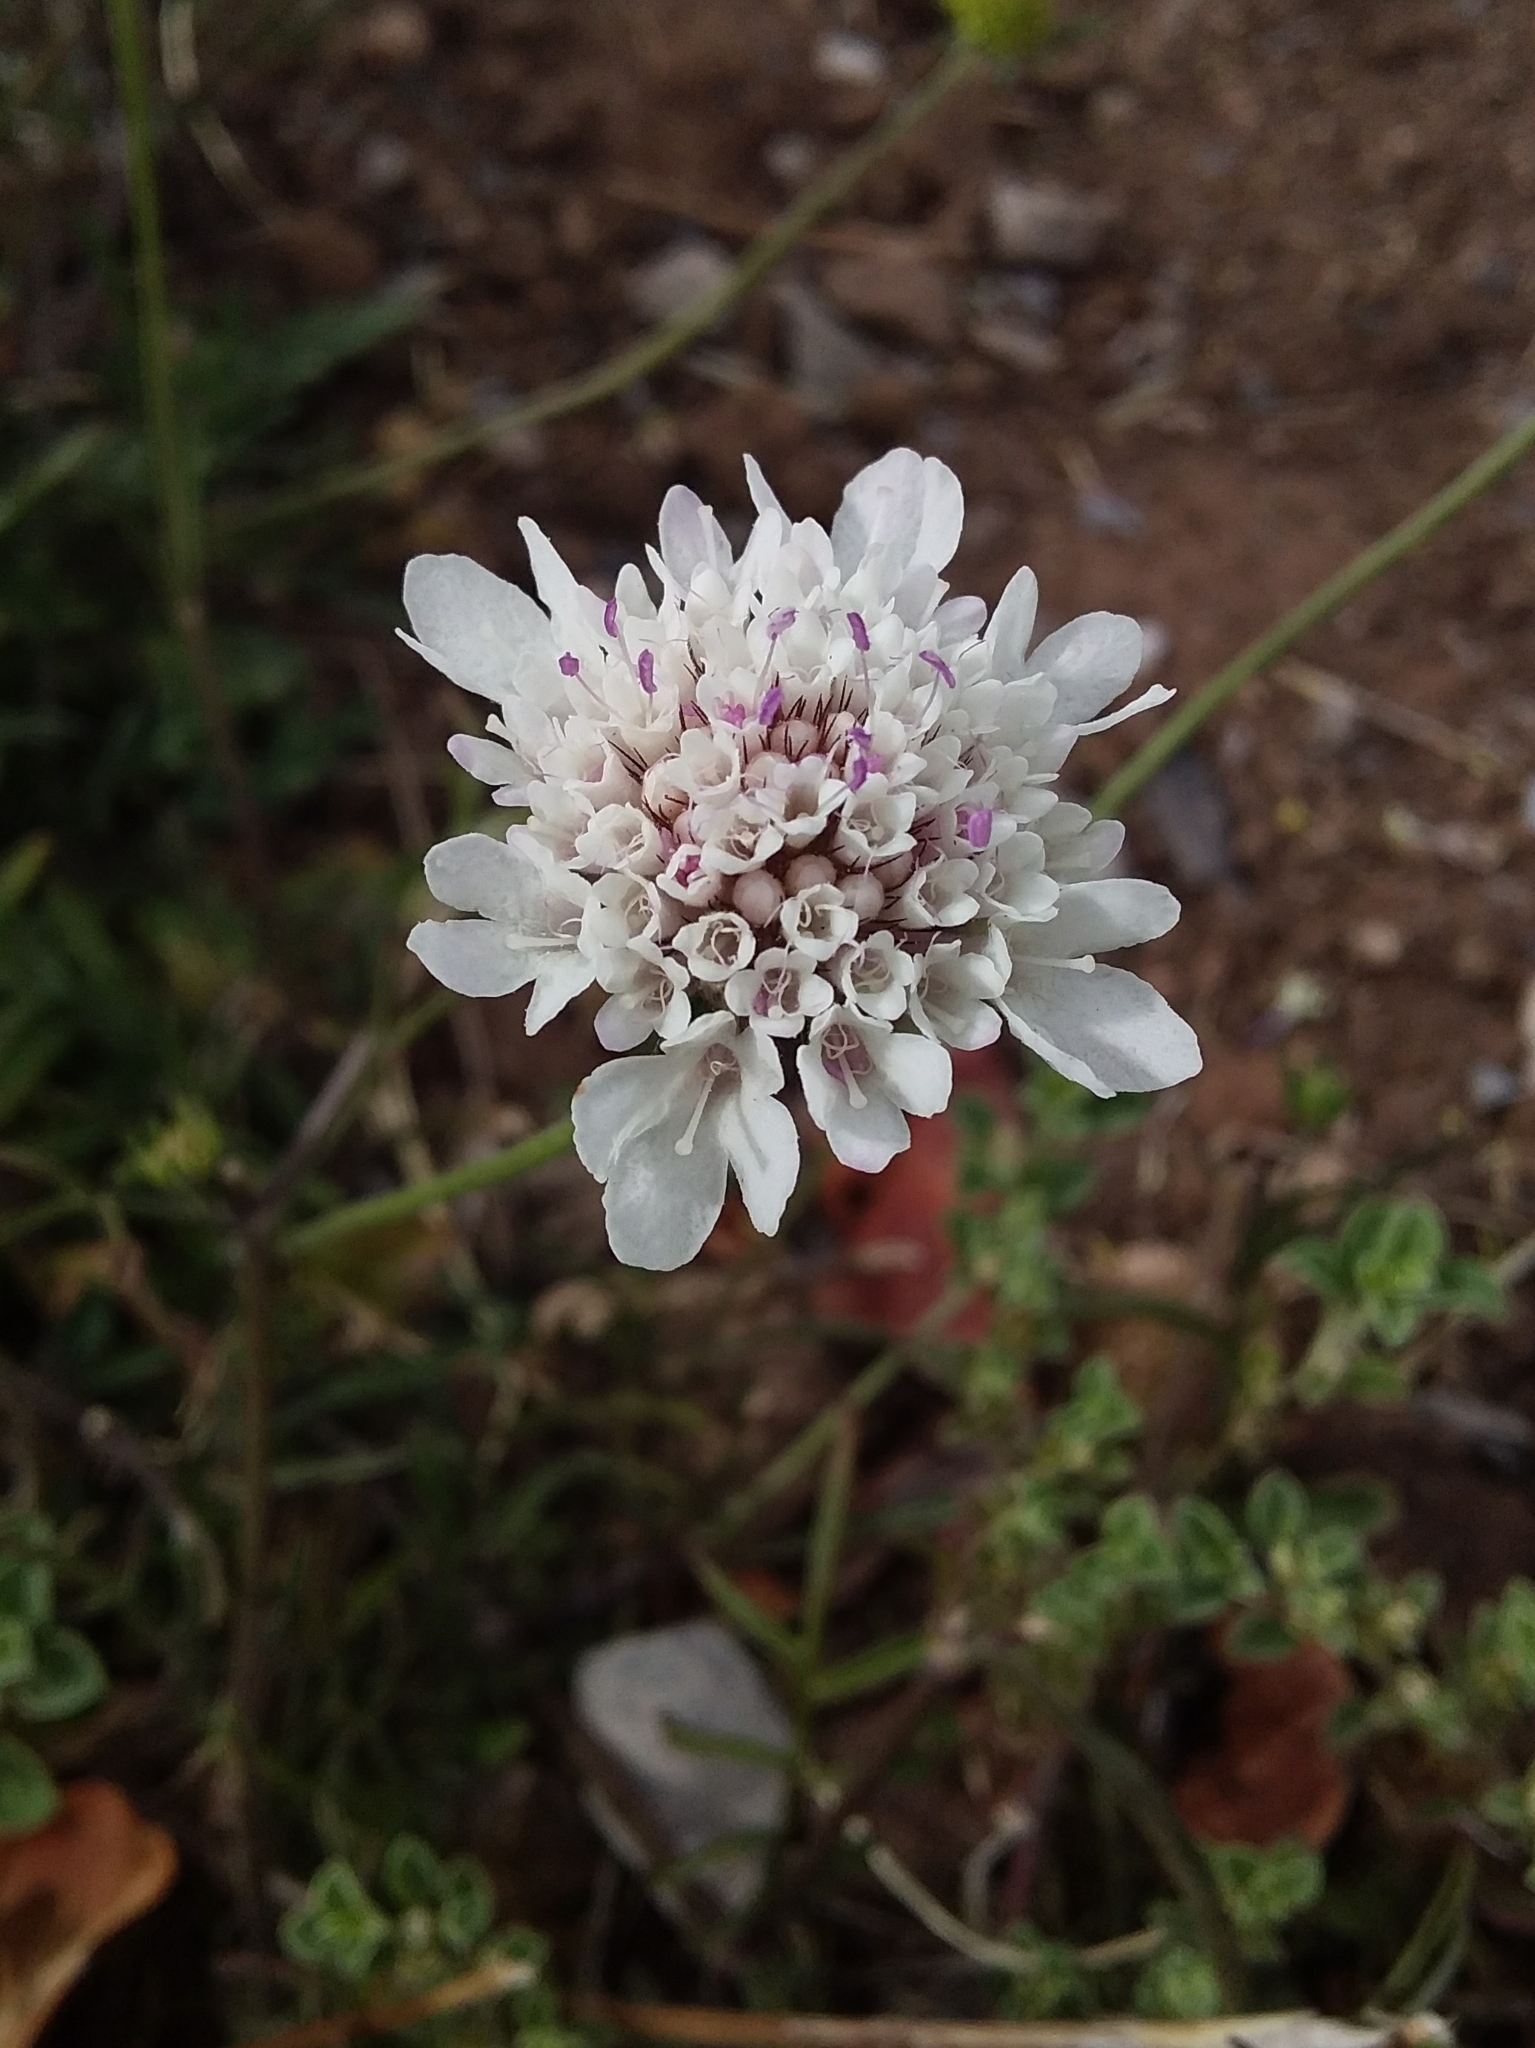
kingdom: Plantae
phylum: Tracheophyta
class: Magnoliopsida
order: Dipsacales
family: Caprifoliaceae
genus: Sixalix
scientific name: Sixalix atropurpurea
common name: Sweet scabious
